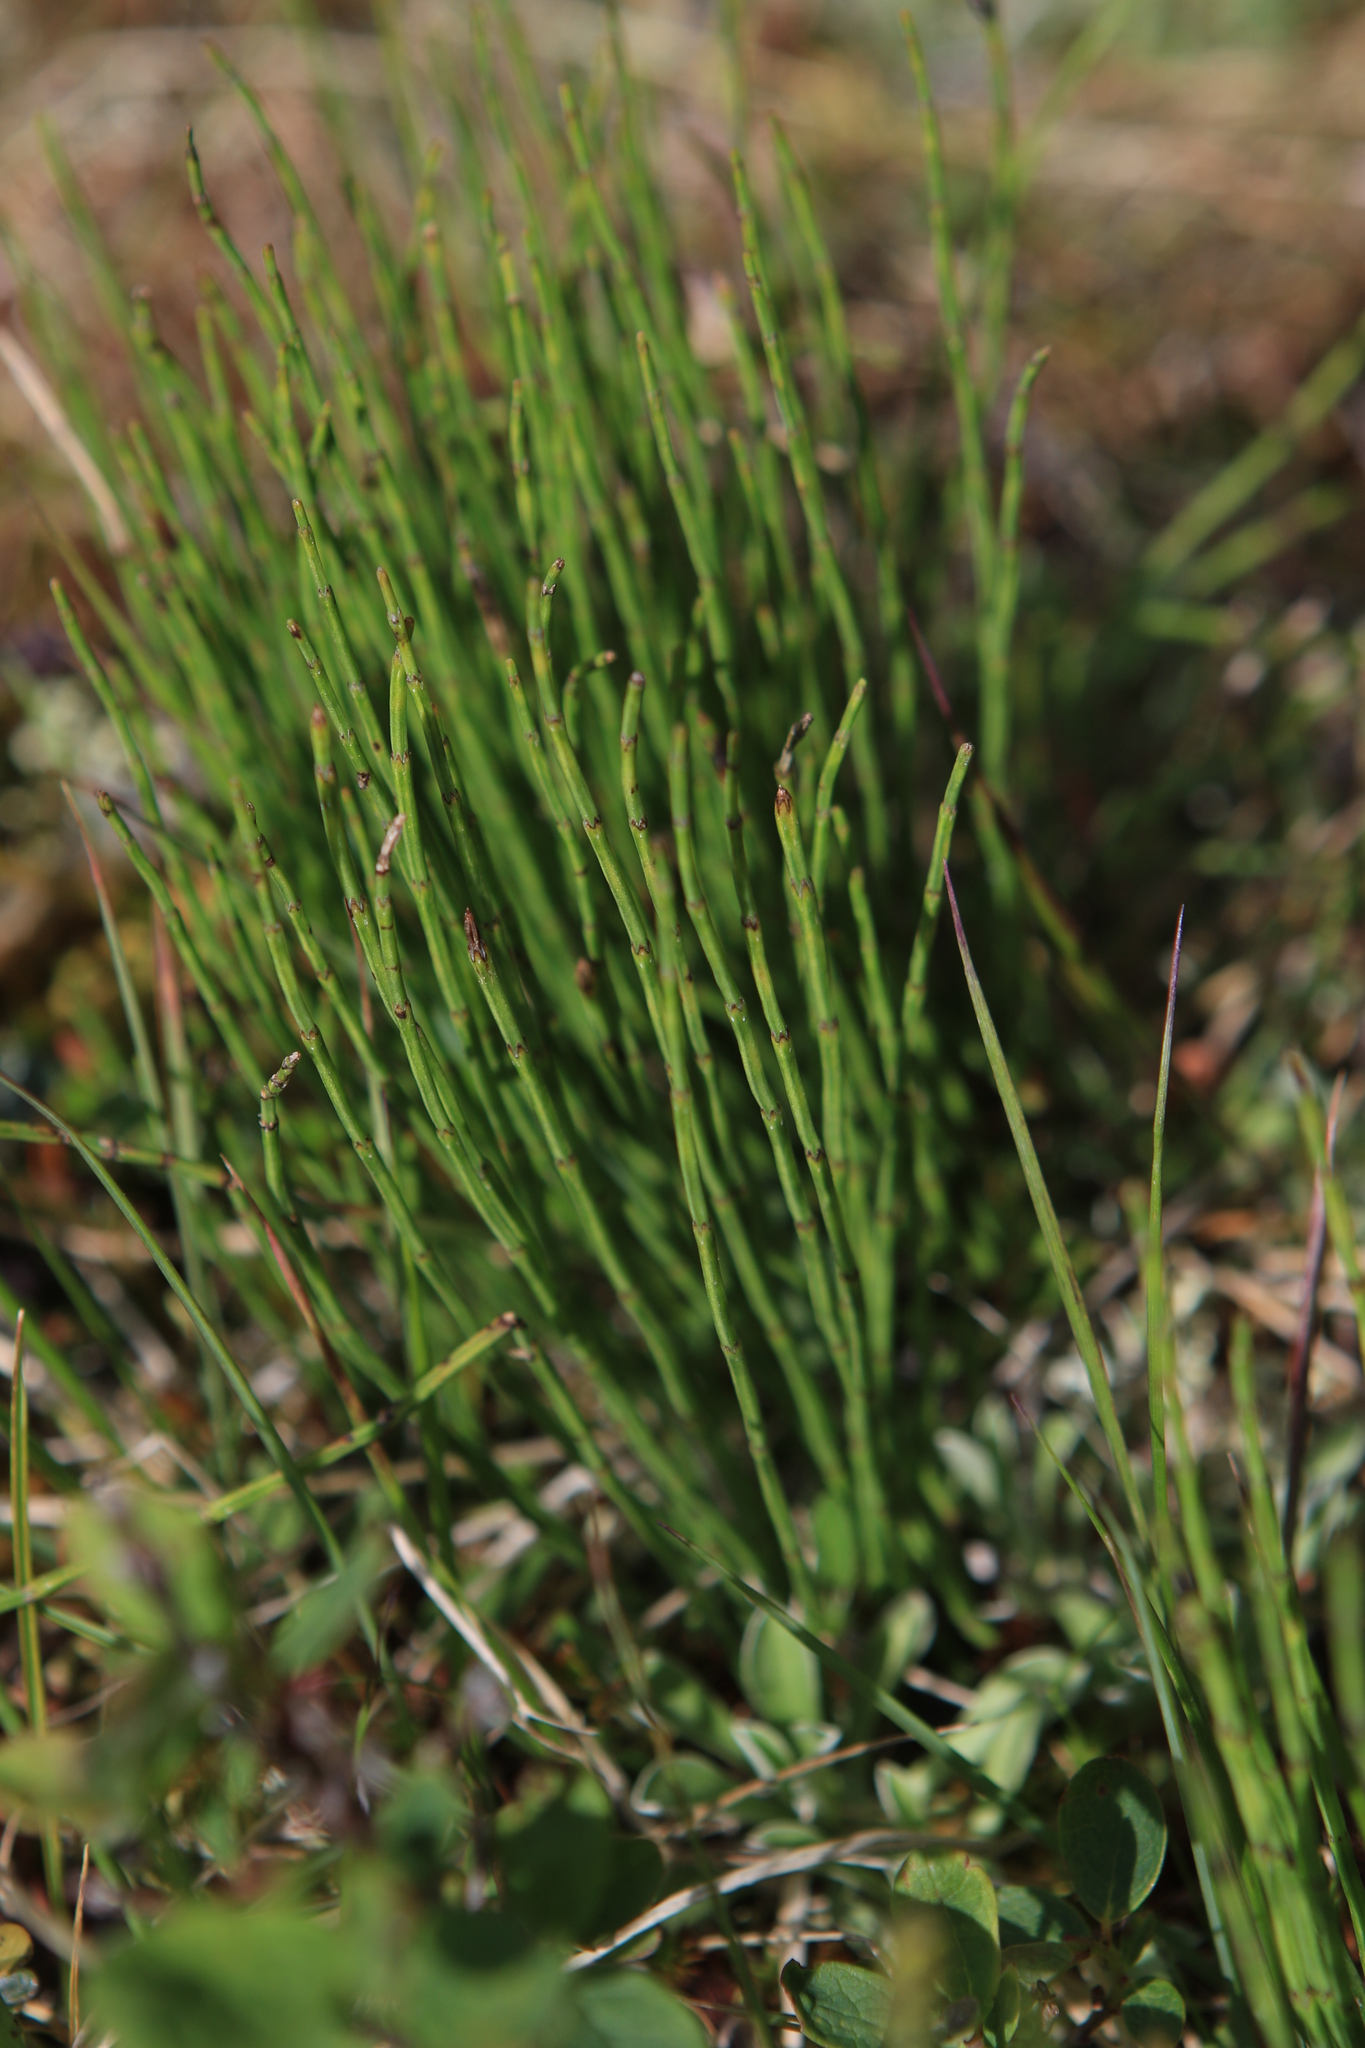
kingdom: Plantae
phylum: Tracheophyta
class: Polypodiopsida
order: Equisetales
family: Equisetaceae
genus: Equisetum
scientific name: Equisetum arvense
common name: Field horsetail
